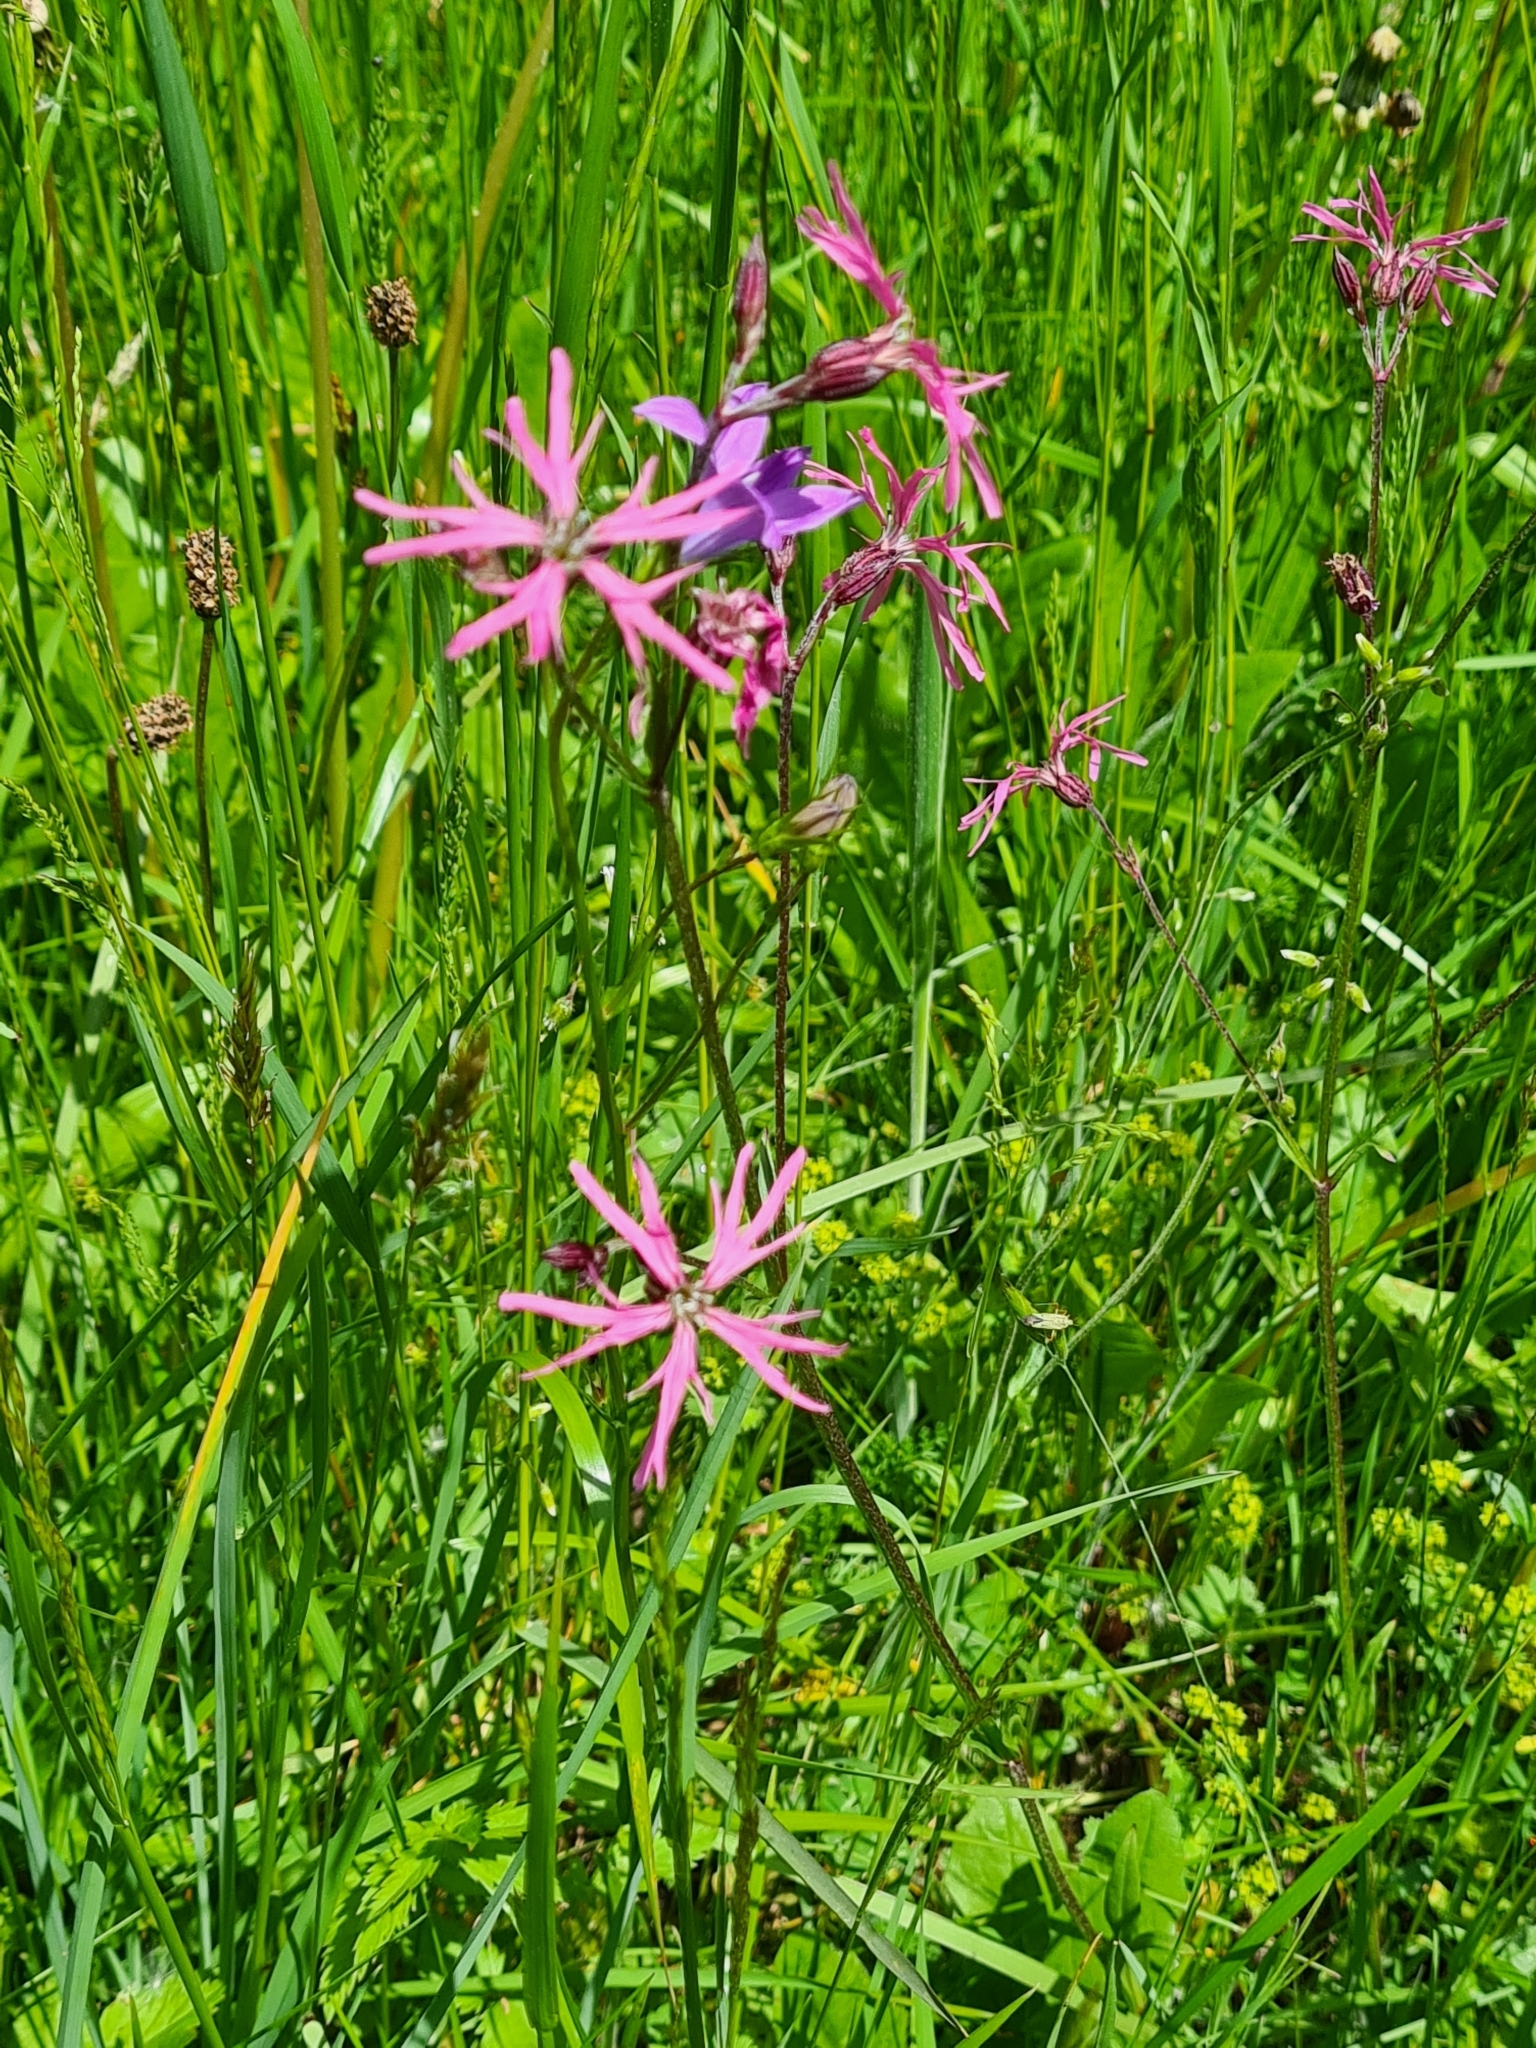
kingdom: Plantae
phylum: Tracheophyta
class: Magnoliopsida
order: Caryophyllales
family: Caryophyllaceae
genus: Silene
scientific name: Silene flos-cuculi
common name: Ragged-robin
